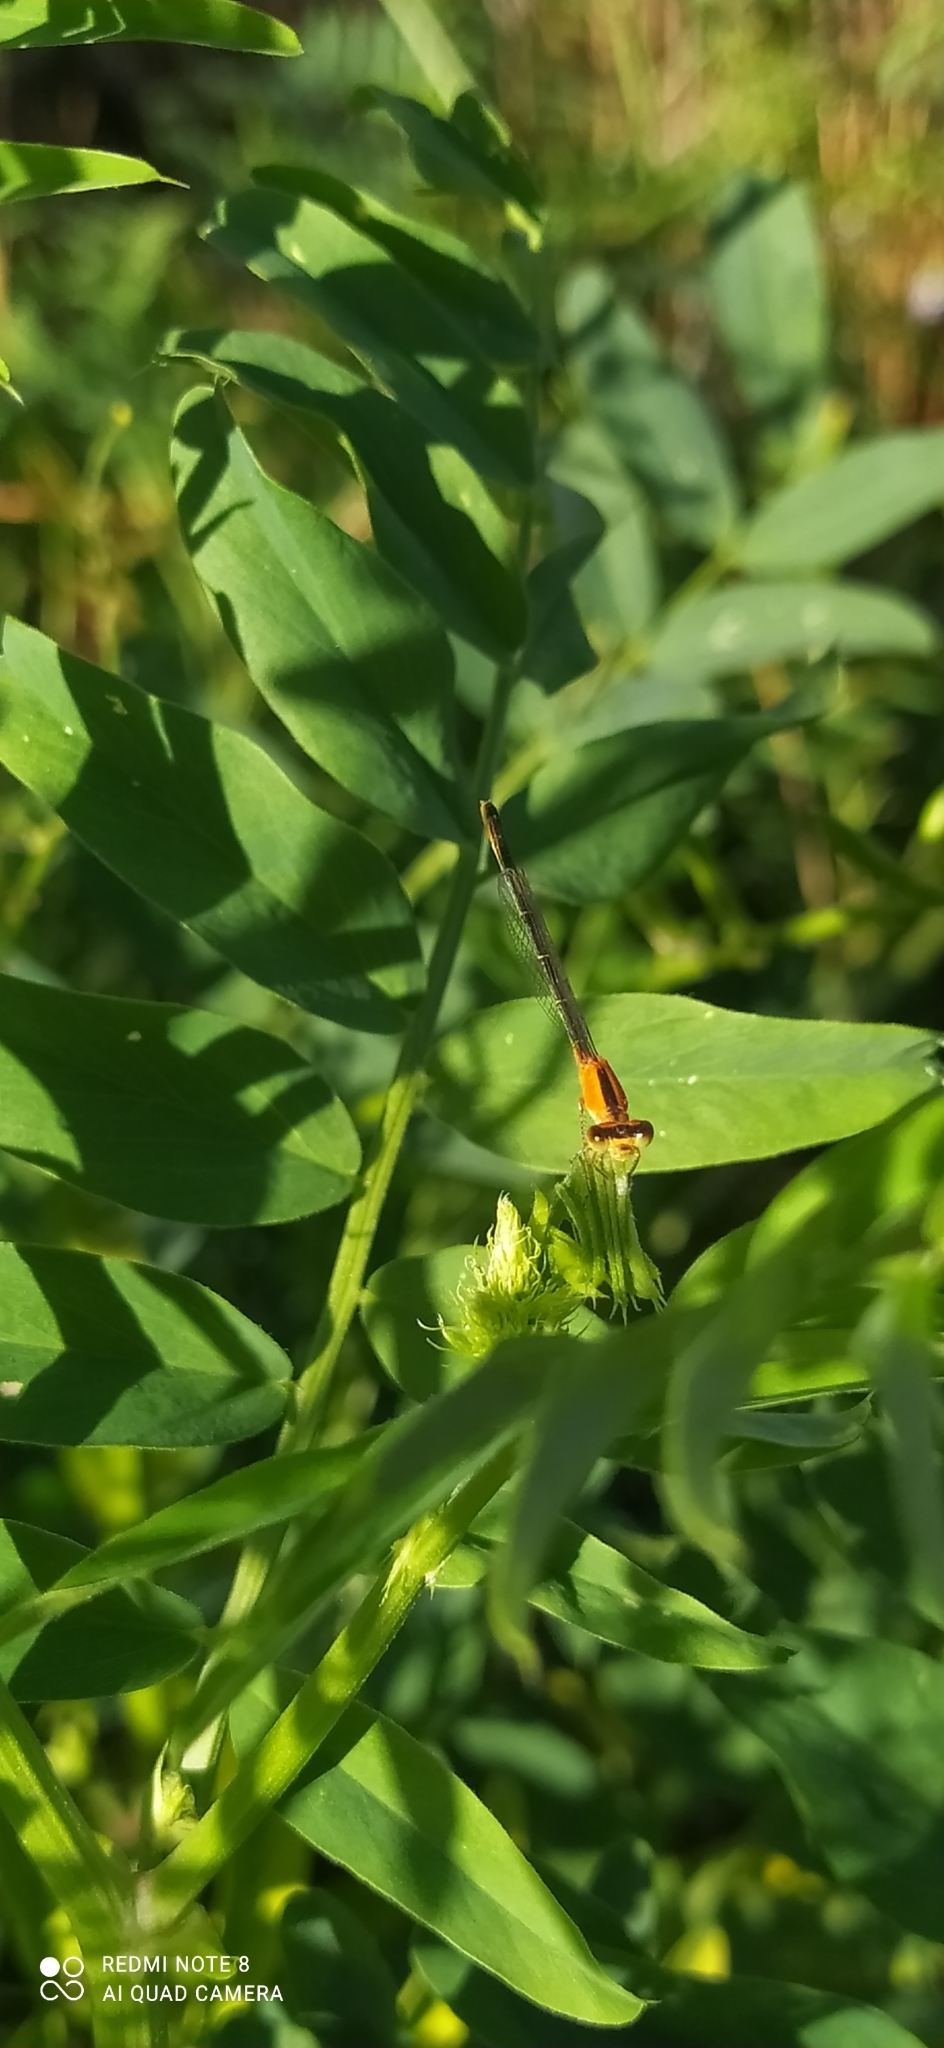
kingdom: Animalia
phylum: Arthropoda
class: Insecta
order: Odonata
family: Coenagrionidae
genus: Ischnura
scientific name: Ischnura fluviatilis
